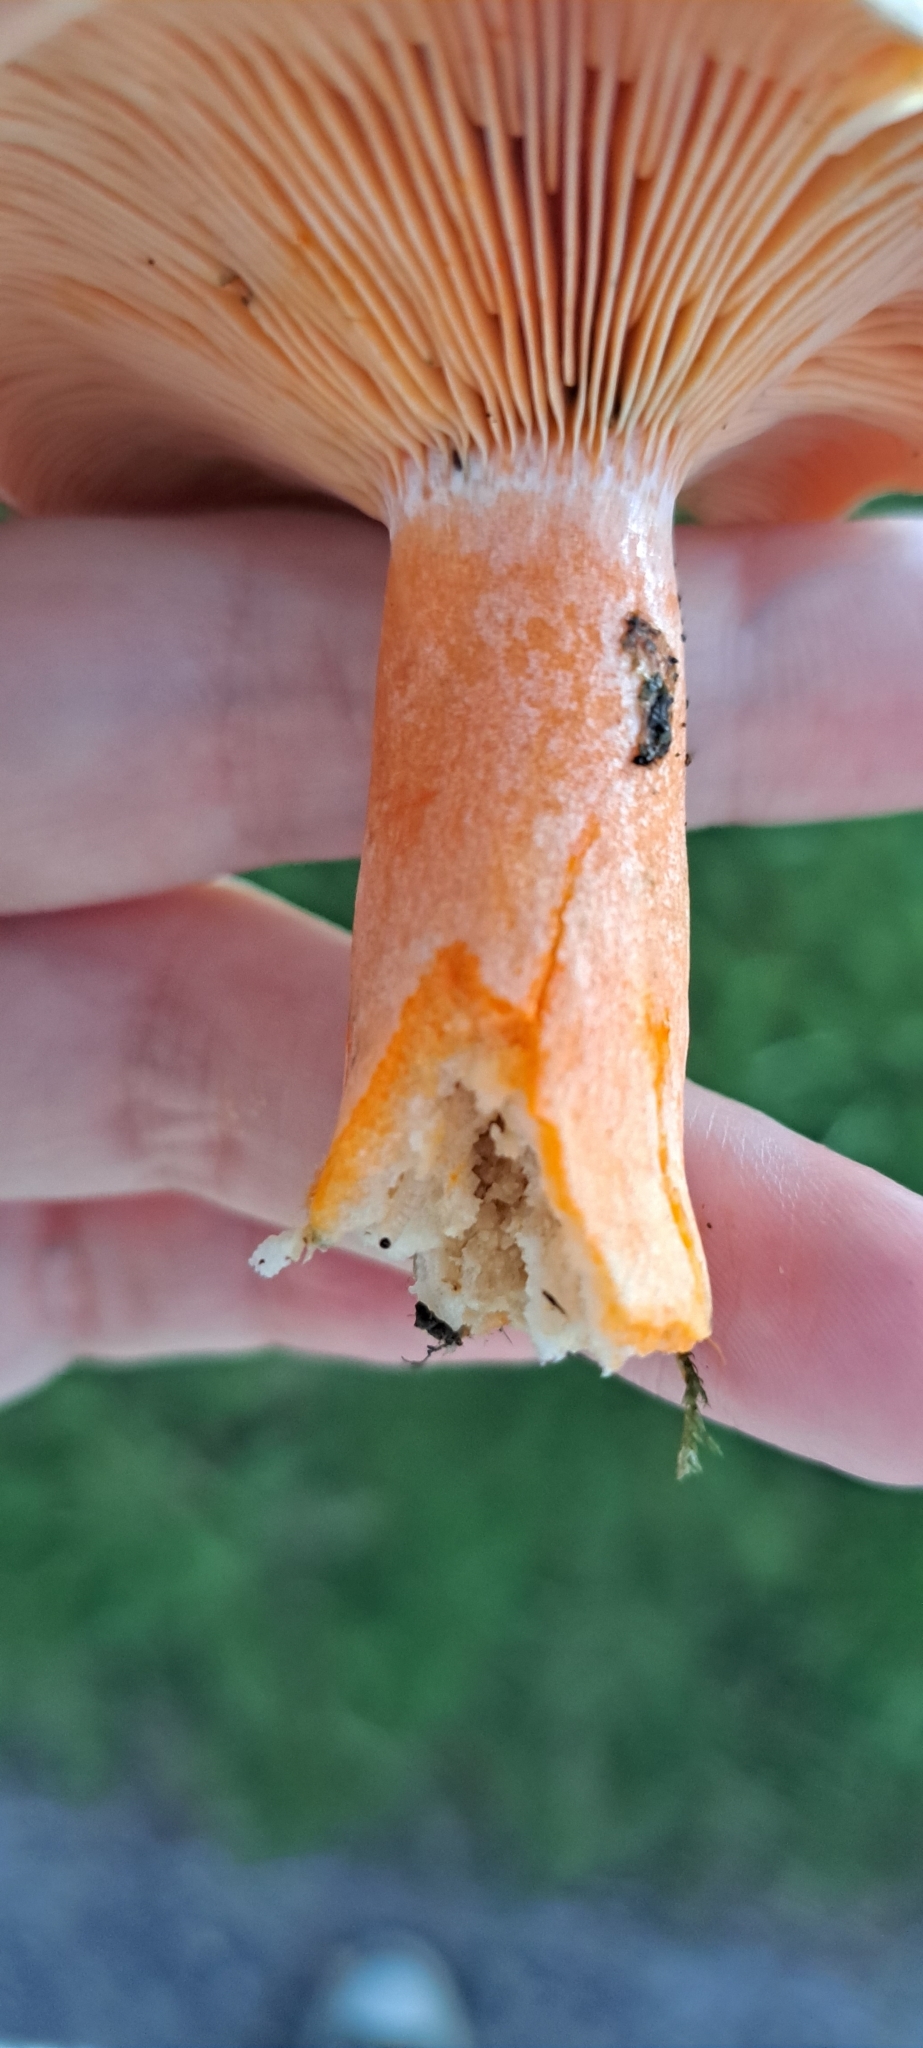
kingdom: Fungi
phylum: Basidiomycota
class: Agaricomycetes
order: Russulales
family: Russulaceae
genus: Lactarius
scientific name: Lactarius deterrimus
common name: False saffron milkcap
